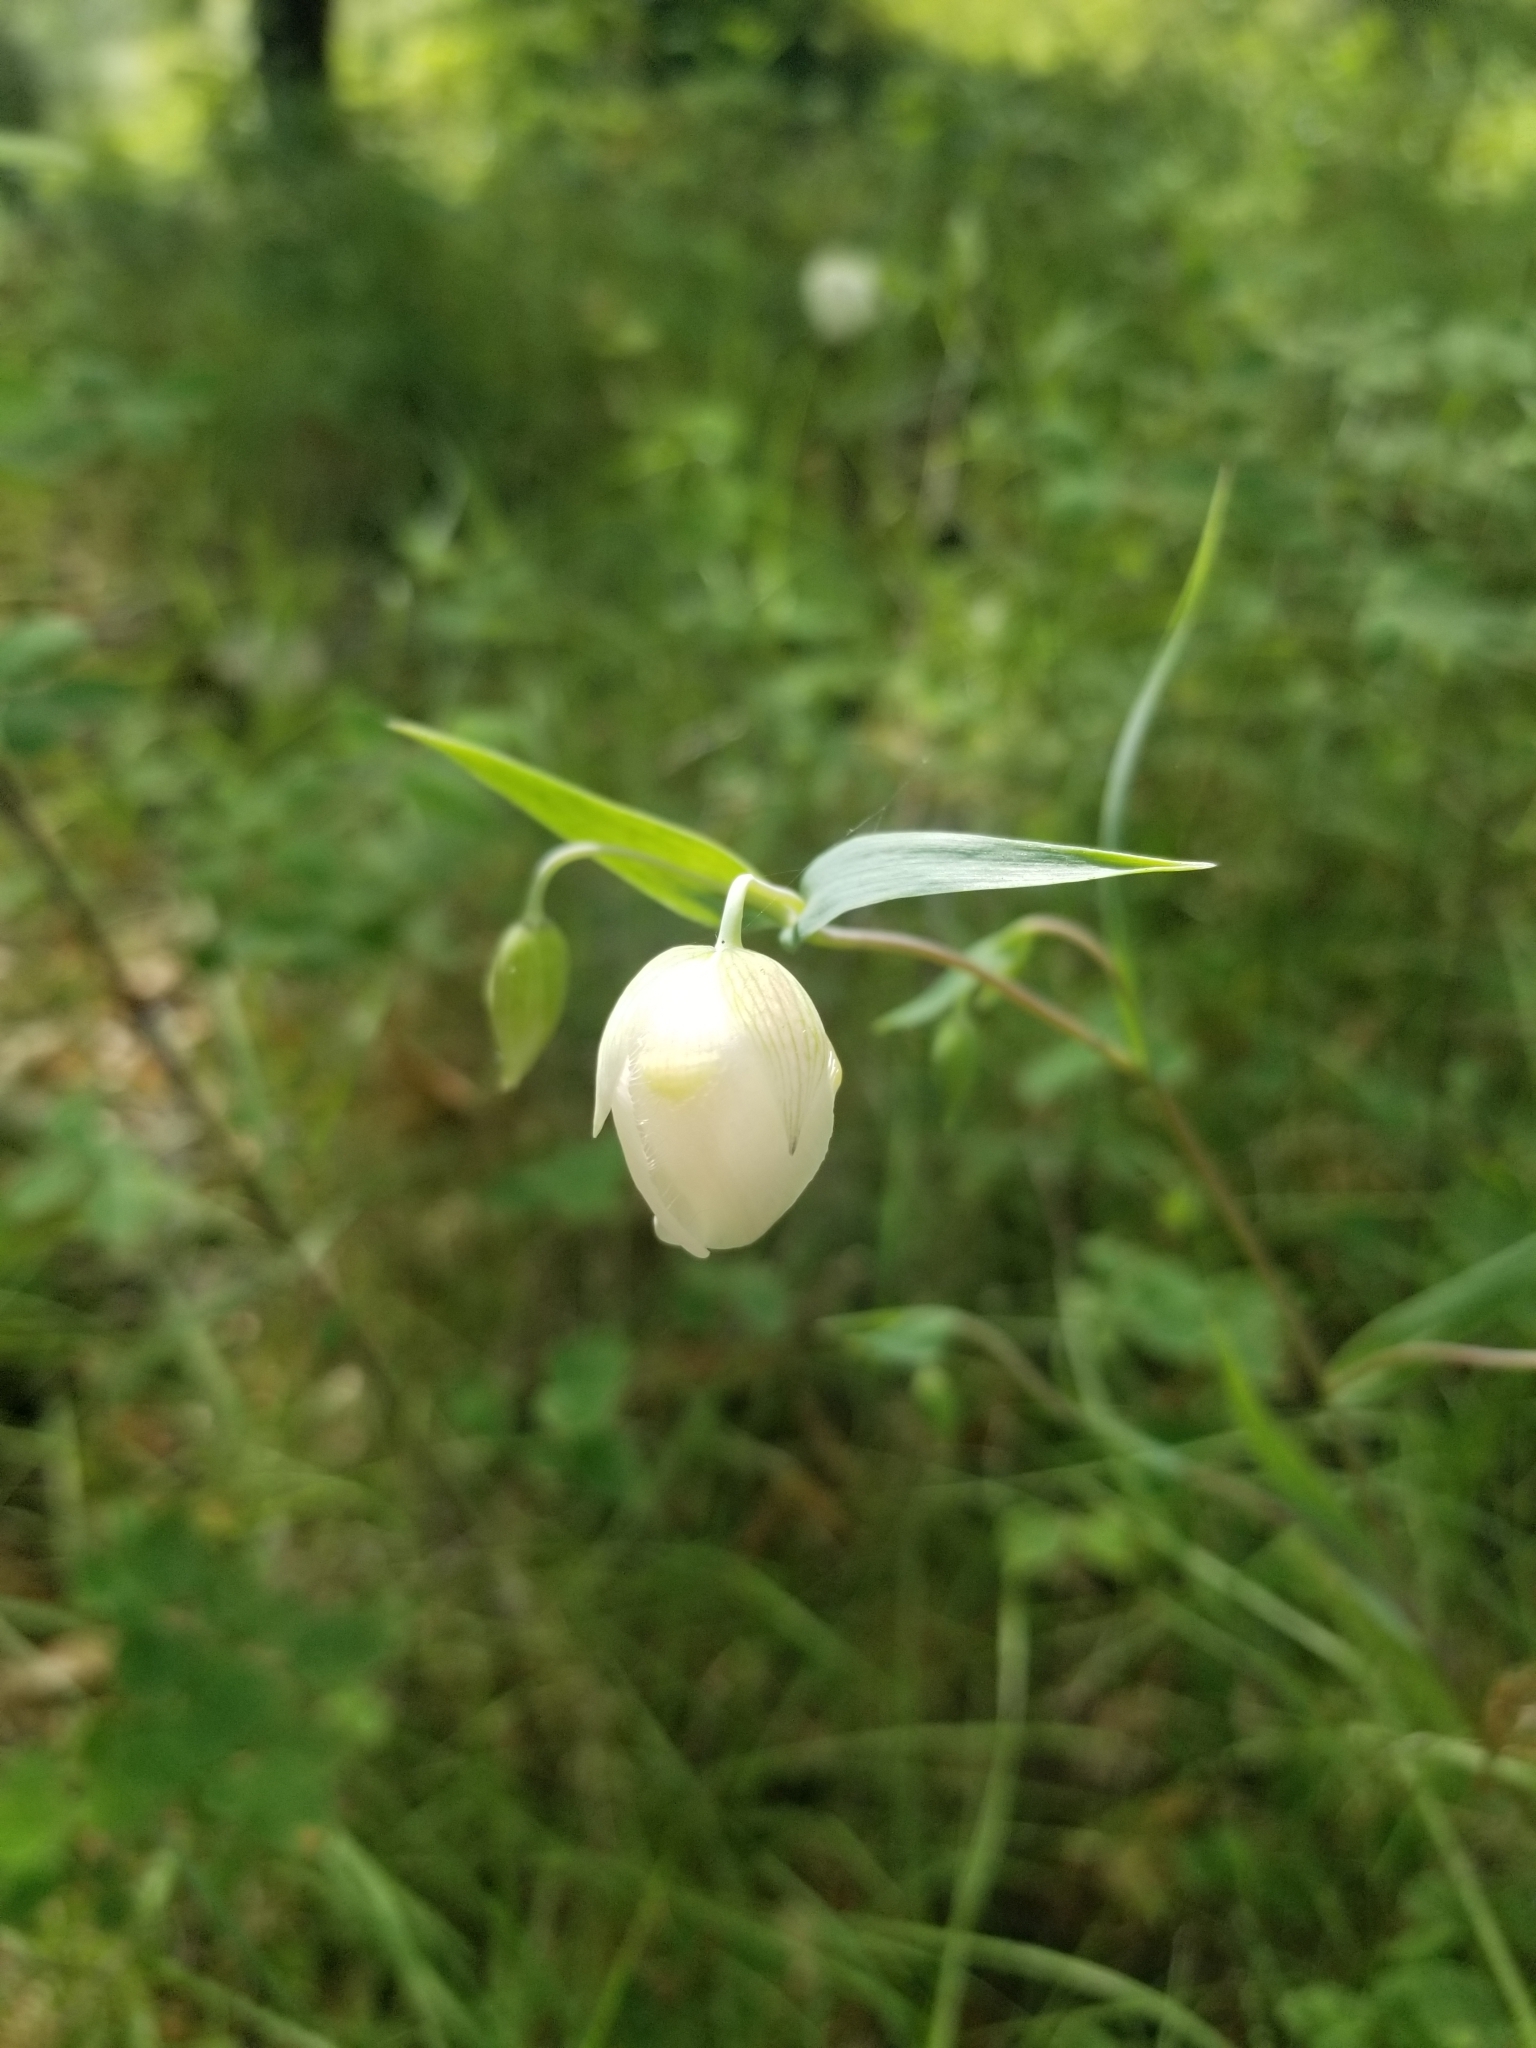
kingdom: Plantae
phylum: Tracheophyta
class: Liliopsida
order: Liliales
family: Liliaceae
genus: Calochortus
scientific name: Calochortus albus
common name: Fairy-lantern
